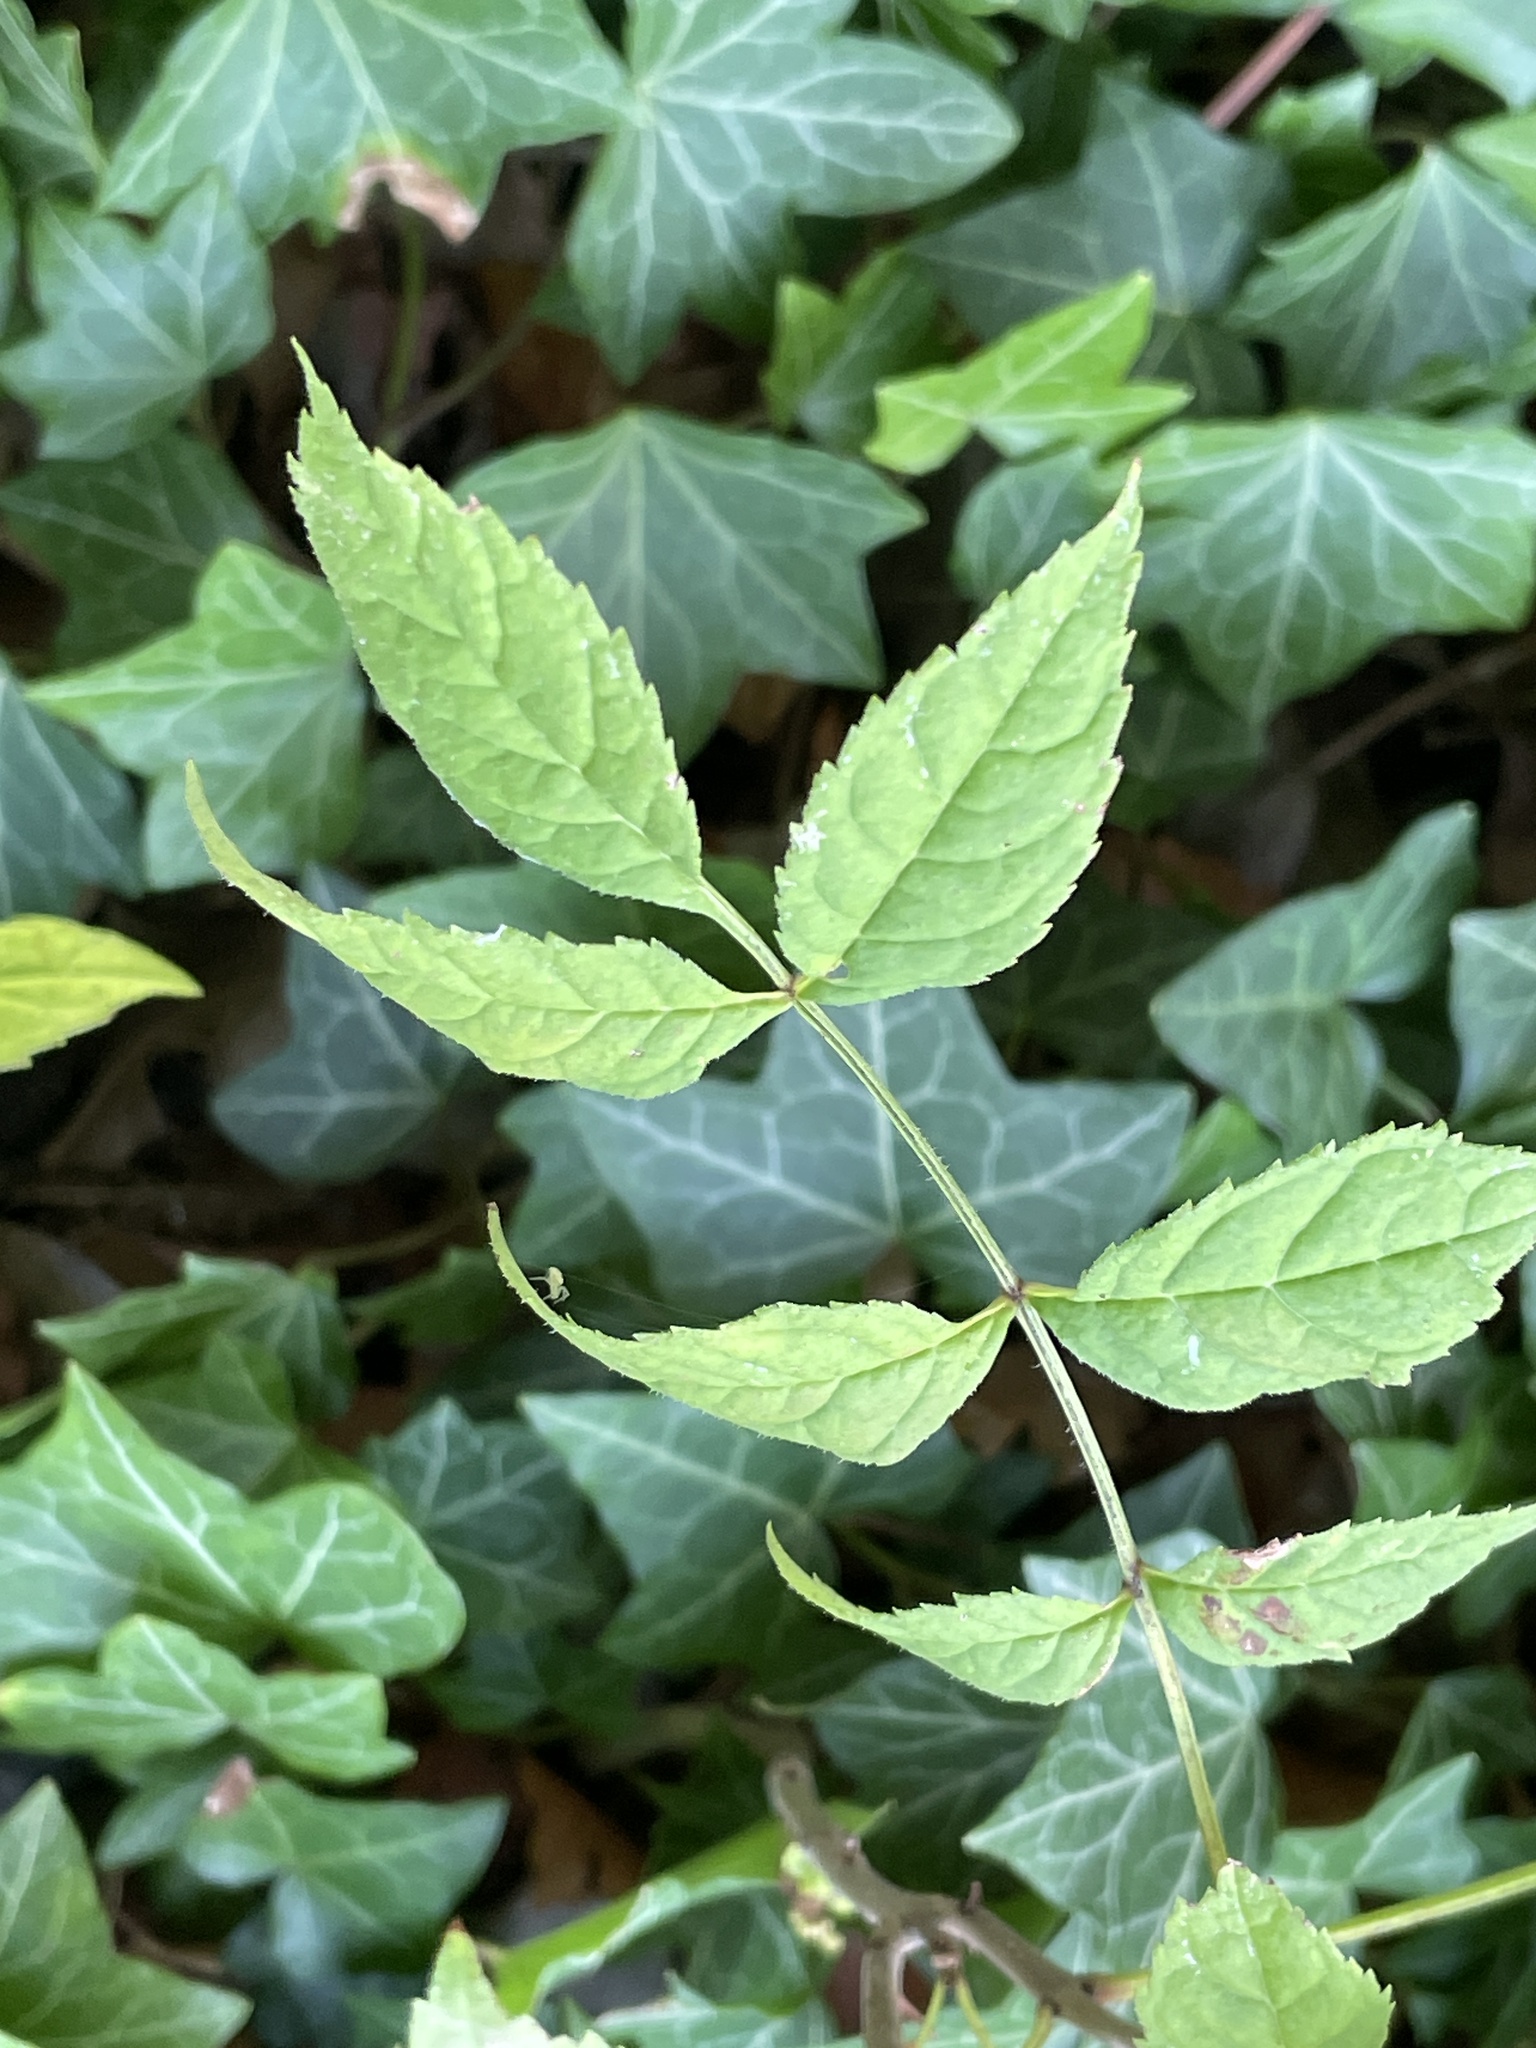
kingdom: Plantae
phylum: Tracheophyta
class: Magnoliopsida
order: Lamiales
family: Oleaceae
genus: Fraxinus
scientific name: Fraxinus excelsior
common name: European ash
